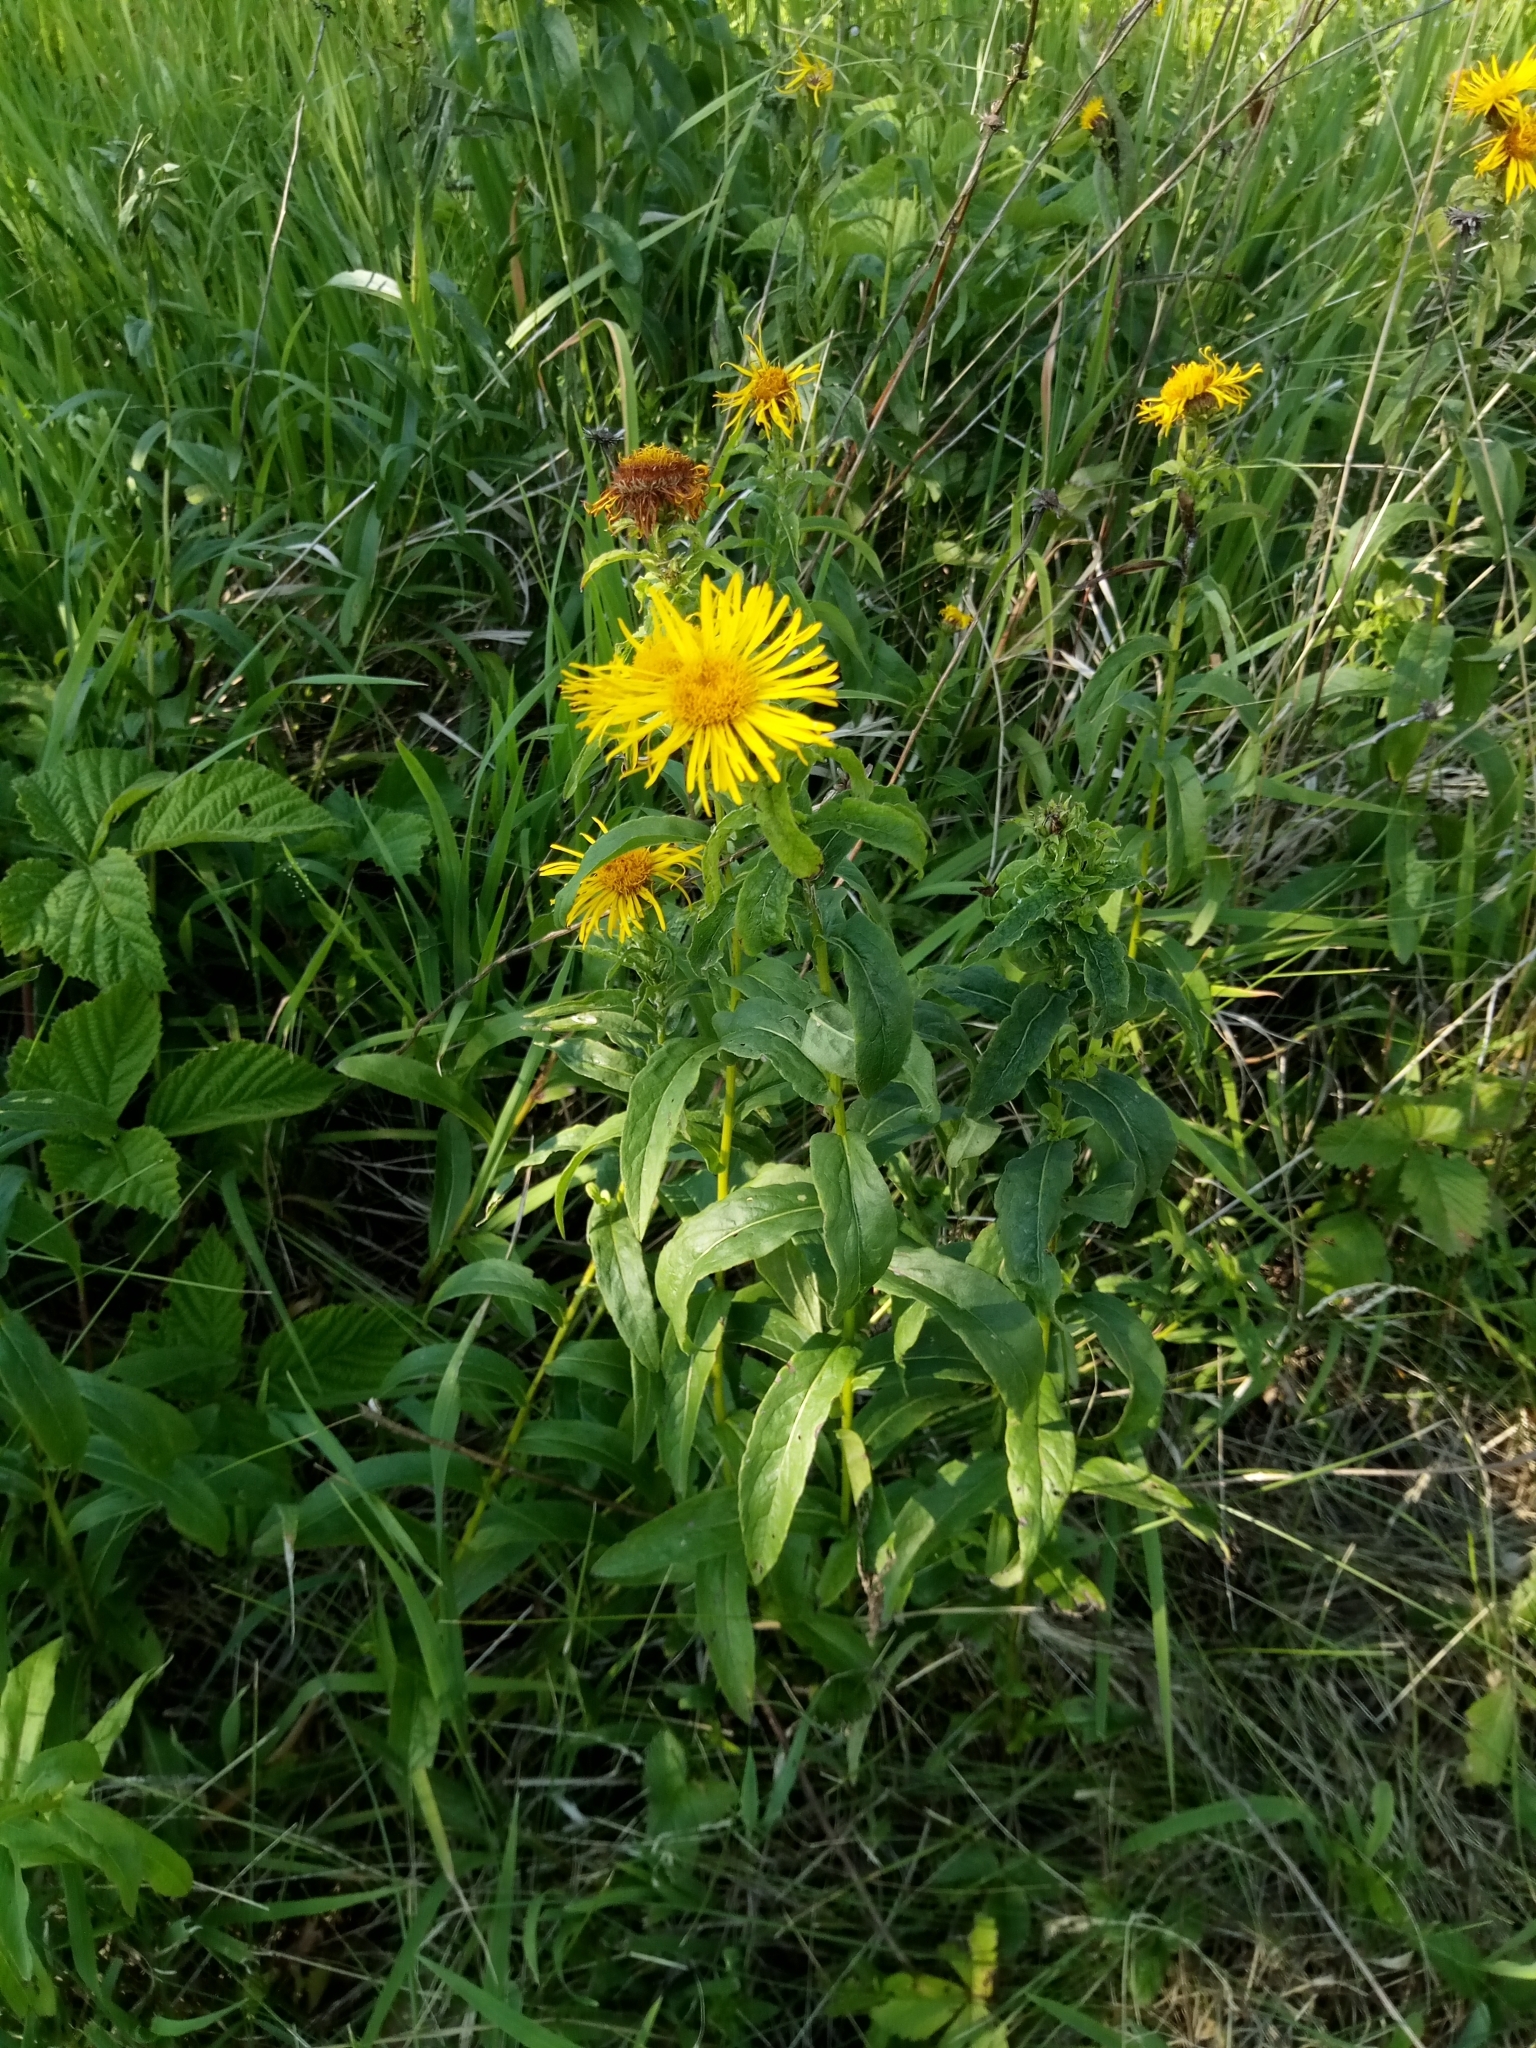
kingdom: Plantae
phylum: Tracheophyta
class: Magnoliopsida
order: Asterales
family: Asteraceae
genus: Pentanema
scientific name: Pentanema salicinum
